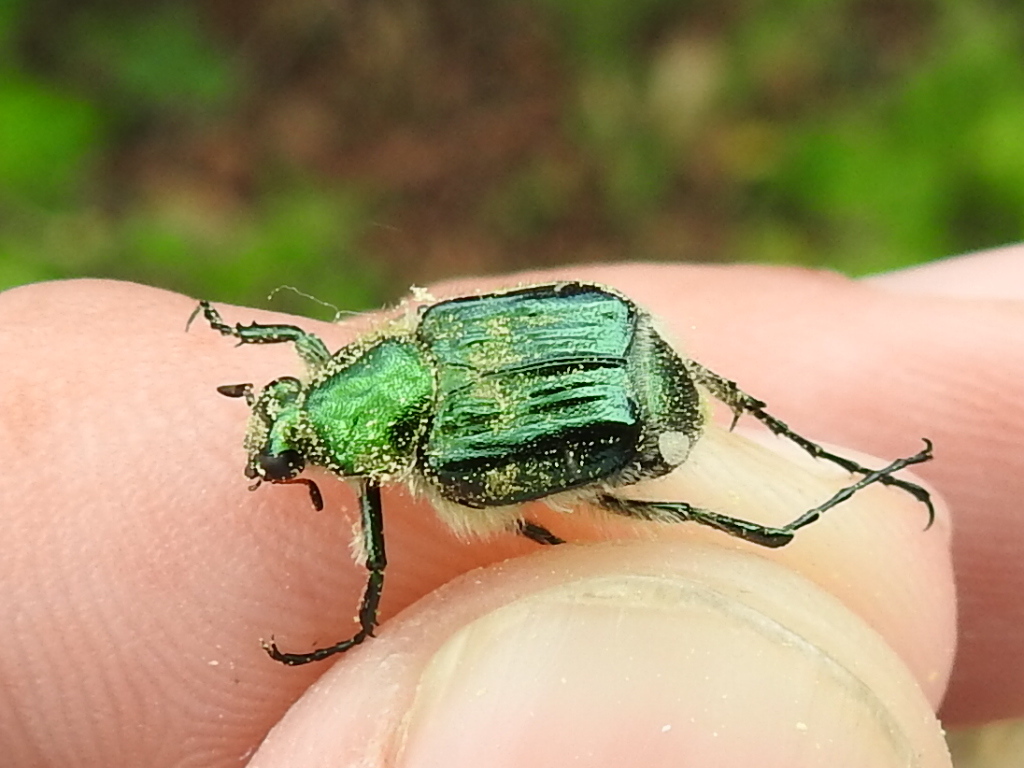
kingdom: Animalia
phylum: Arthropoda
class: Insecta
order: Coleoptera
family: Scarabaeidae
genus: Trichiotinus
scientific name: Trichiotinus lunulatus
